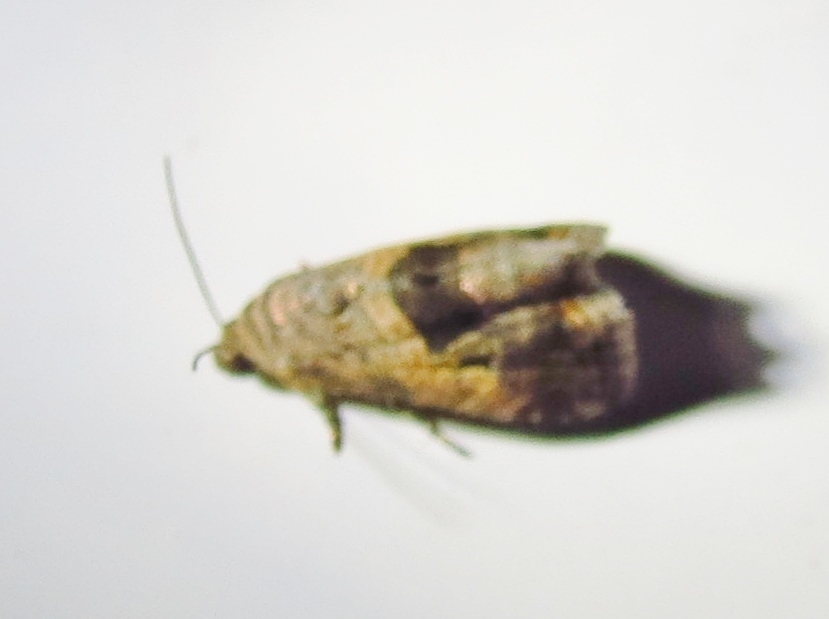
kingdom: Animalia
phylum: Arthropoda
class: Insecta
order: Lepidoptera
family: Noctuidae
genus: Tripudia
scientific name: Tripudia quadrifera
